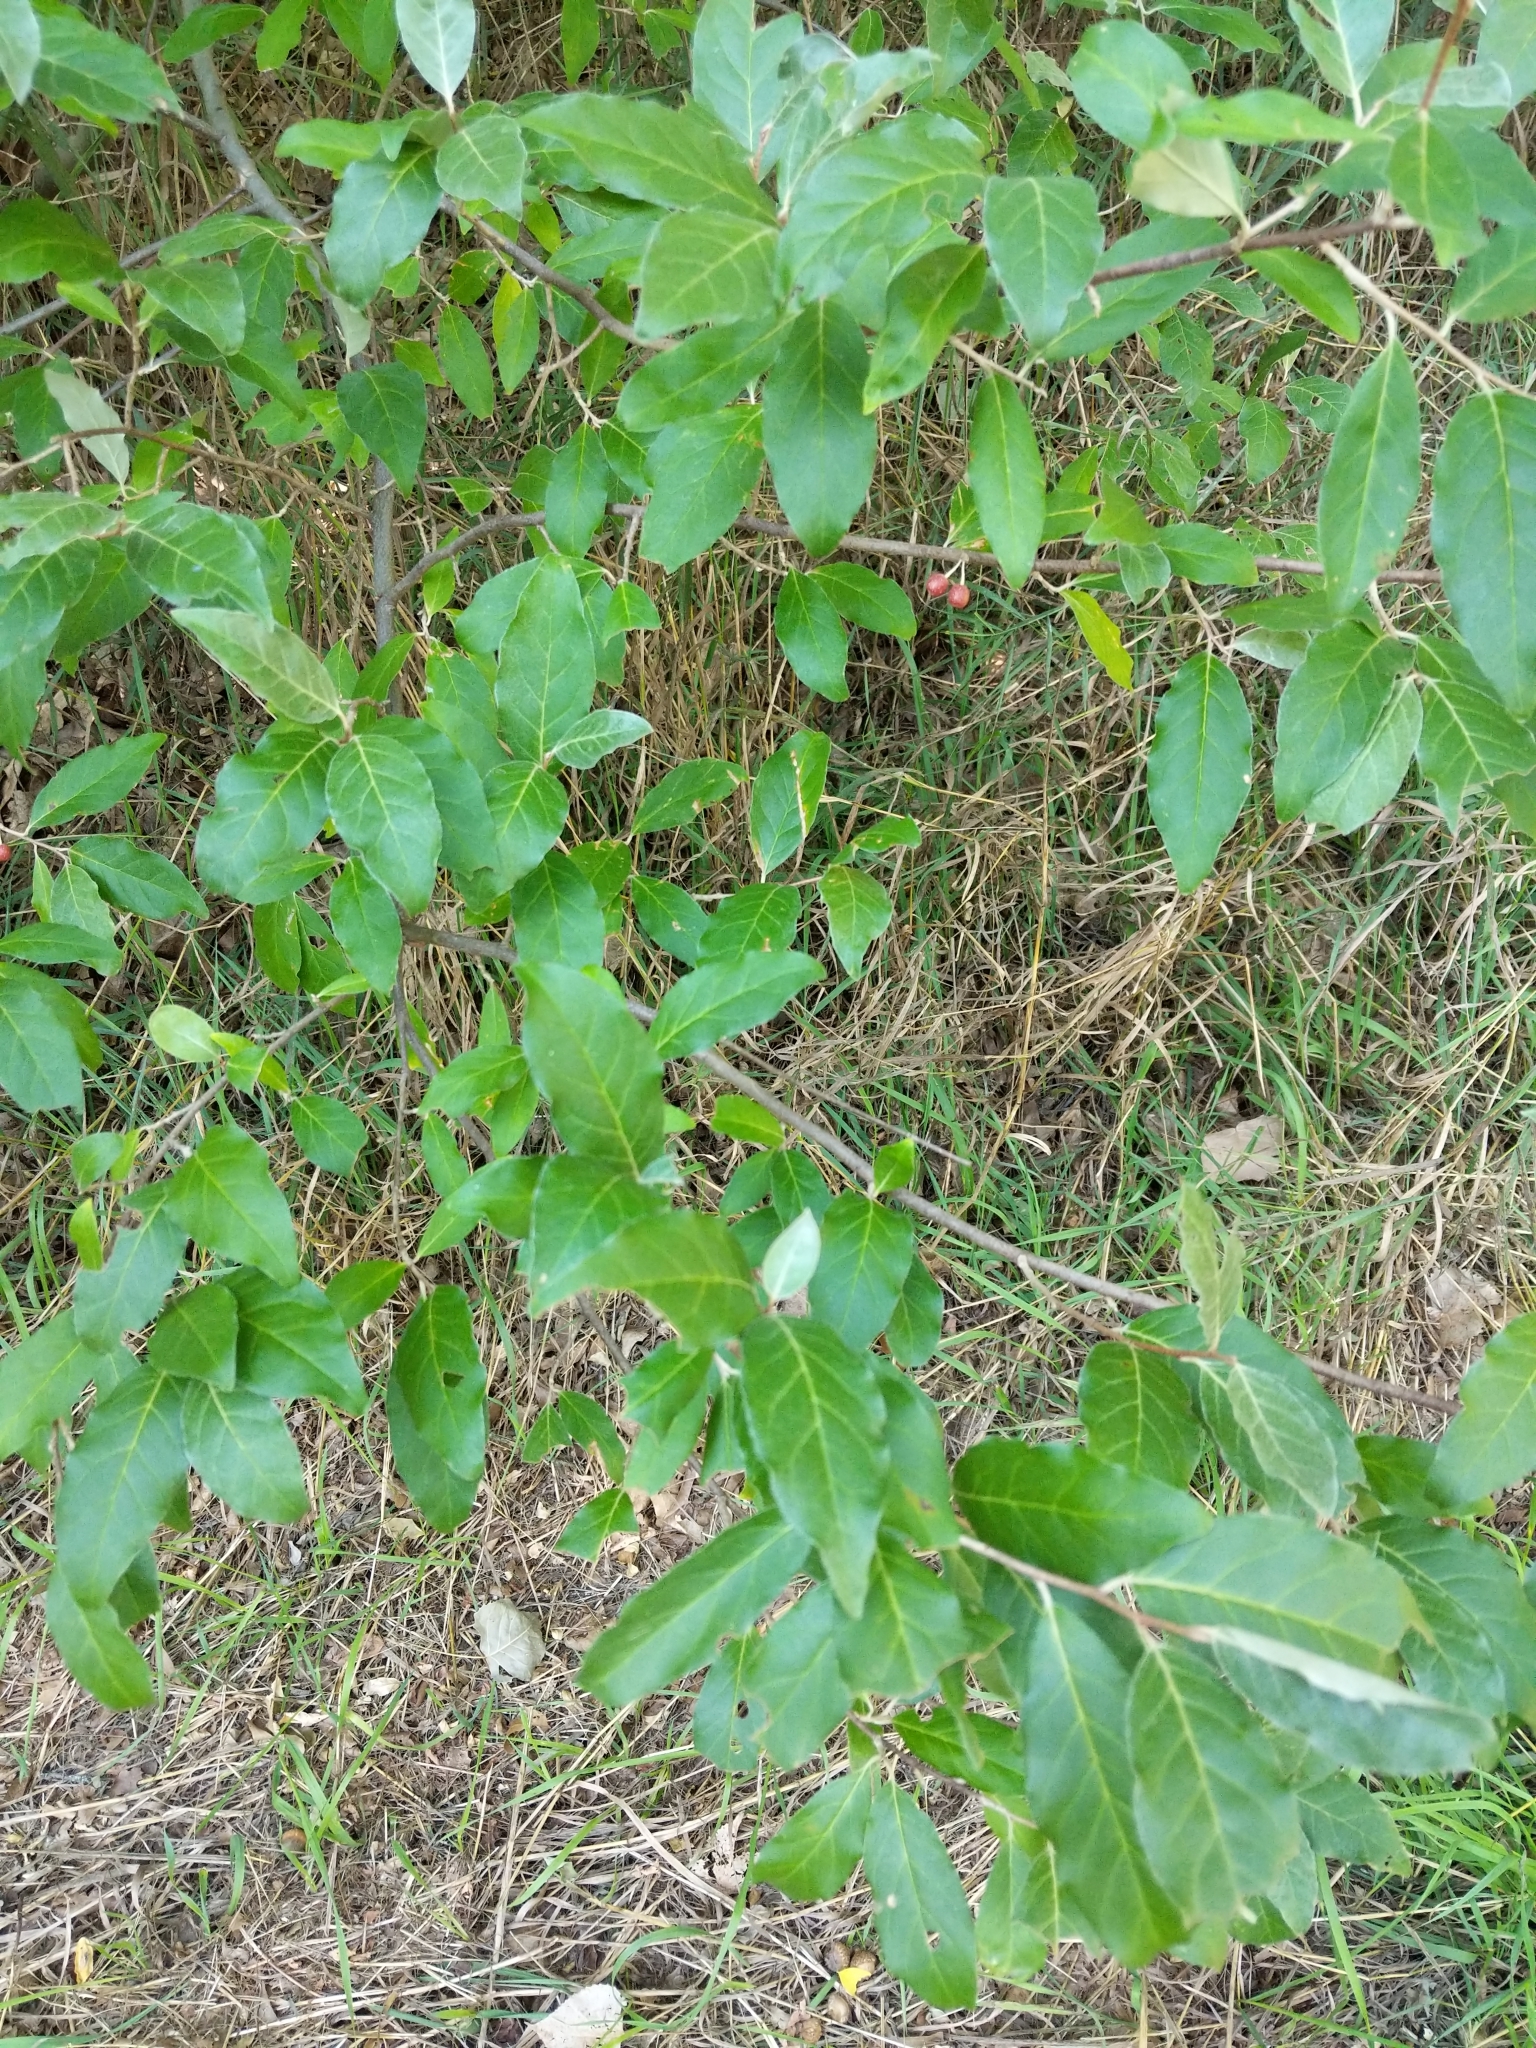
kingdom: Plantae
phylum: Tracheophyta
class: Magnoliopsida
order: Rosales
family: Elaeagnaceae
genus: Elaeagnus
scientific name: Elaeagnus umbellata
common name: Autumn olive
